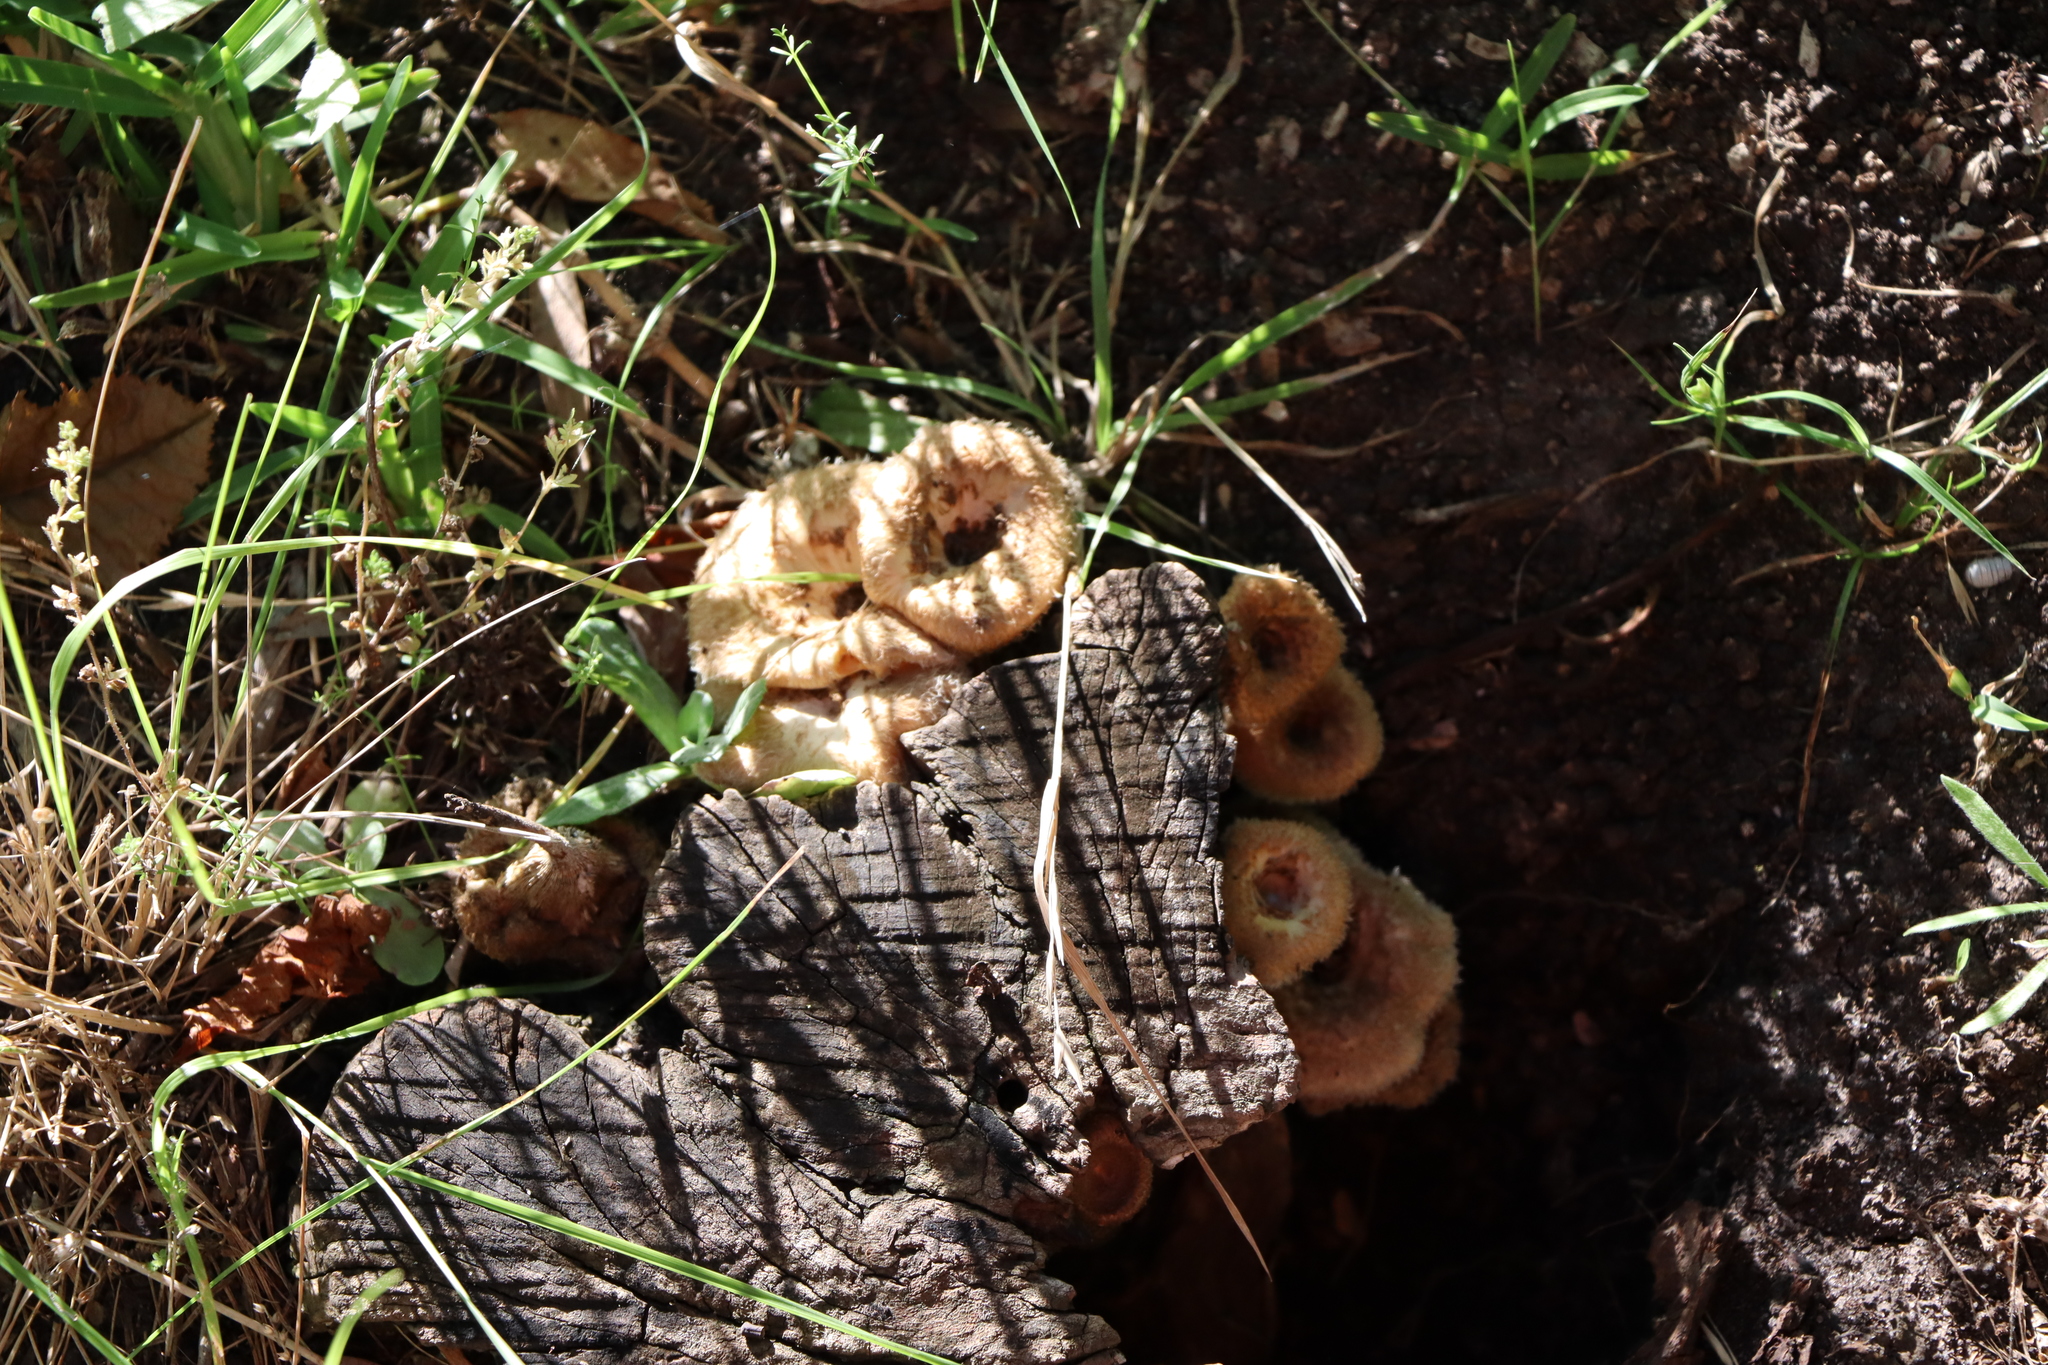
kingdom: Fungi
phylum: Basidiomycota
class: Agaricomycetes
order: Polyporales
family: Polyporaceae
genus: Lentinus
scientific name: Lentinus crinitus
